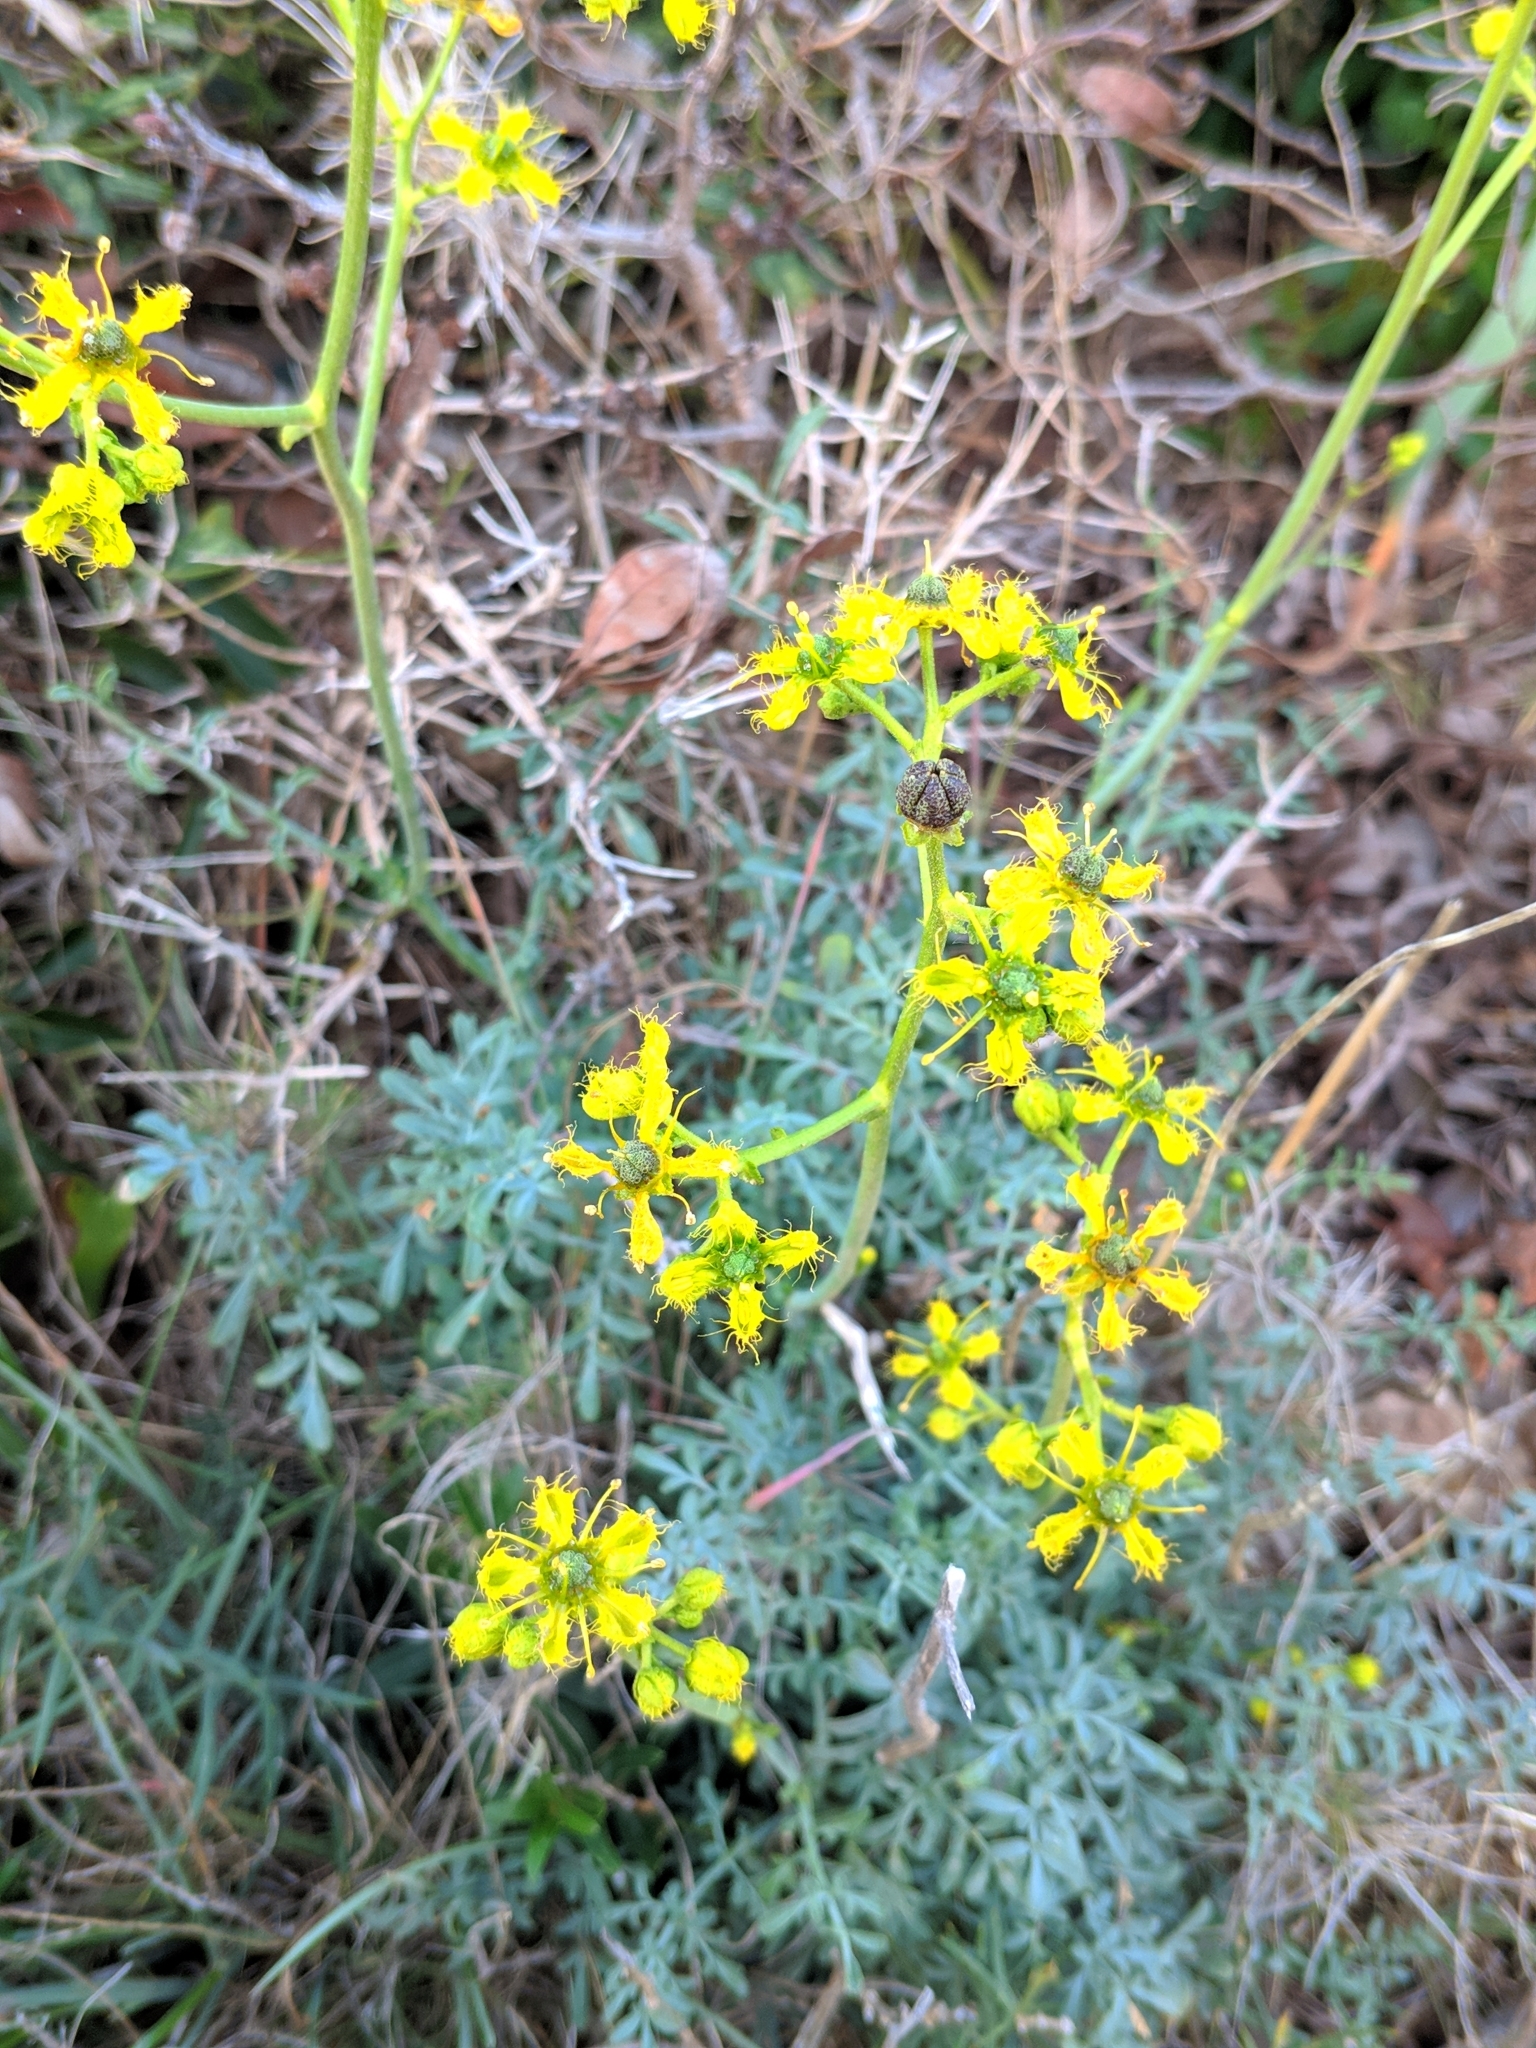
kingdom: Plantae
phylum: Tracheophyta
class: Magnoliopsida
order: Sapindales
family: Rutaceae
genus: Ruta
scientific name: Ruta angustifolia
